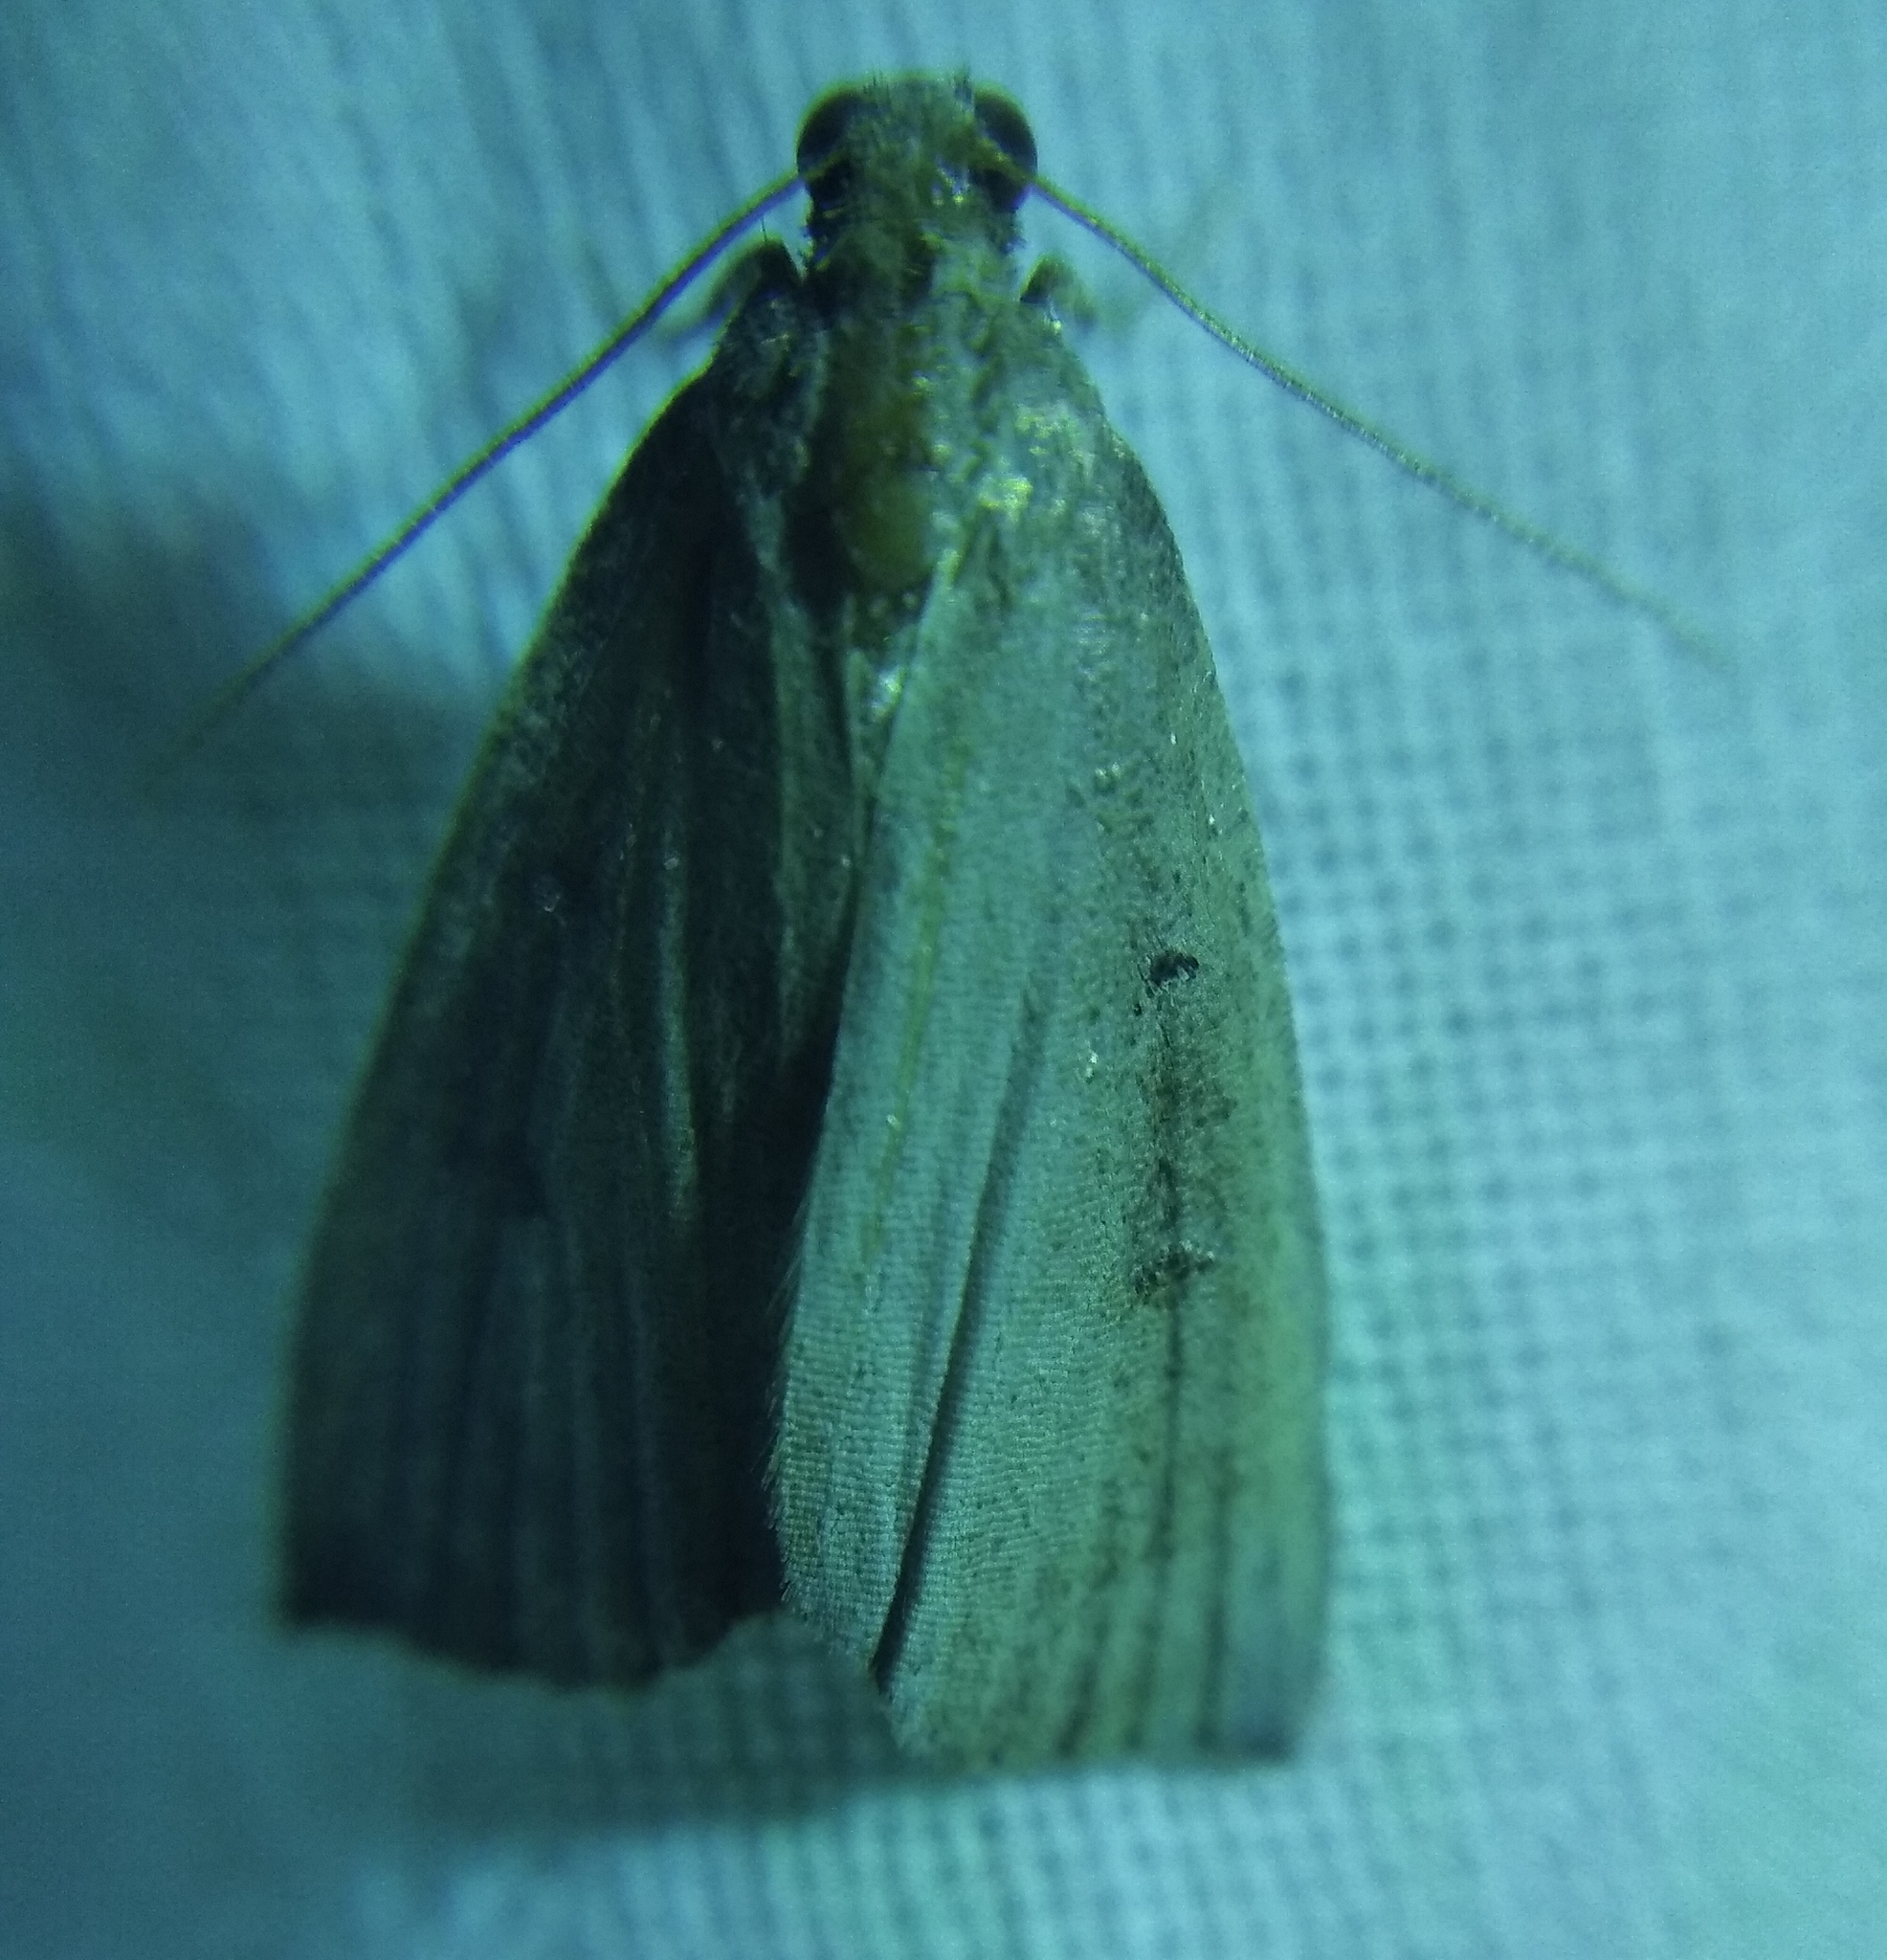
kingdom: Animalia
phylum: Arthropoda
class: Insecta
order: Lepidoptera
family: Erebidae
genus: Hypena
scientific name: Hypena rostralis
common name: Buttoned snout
